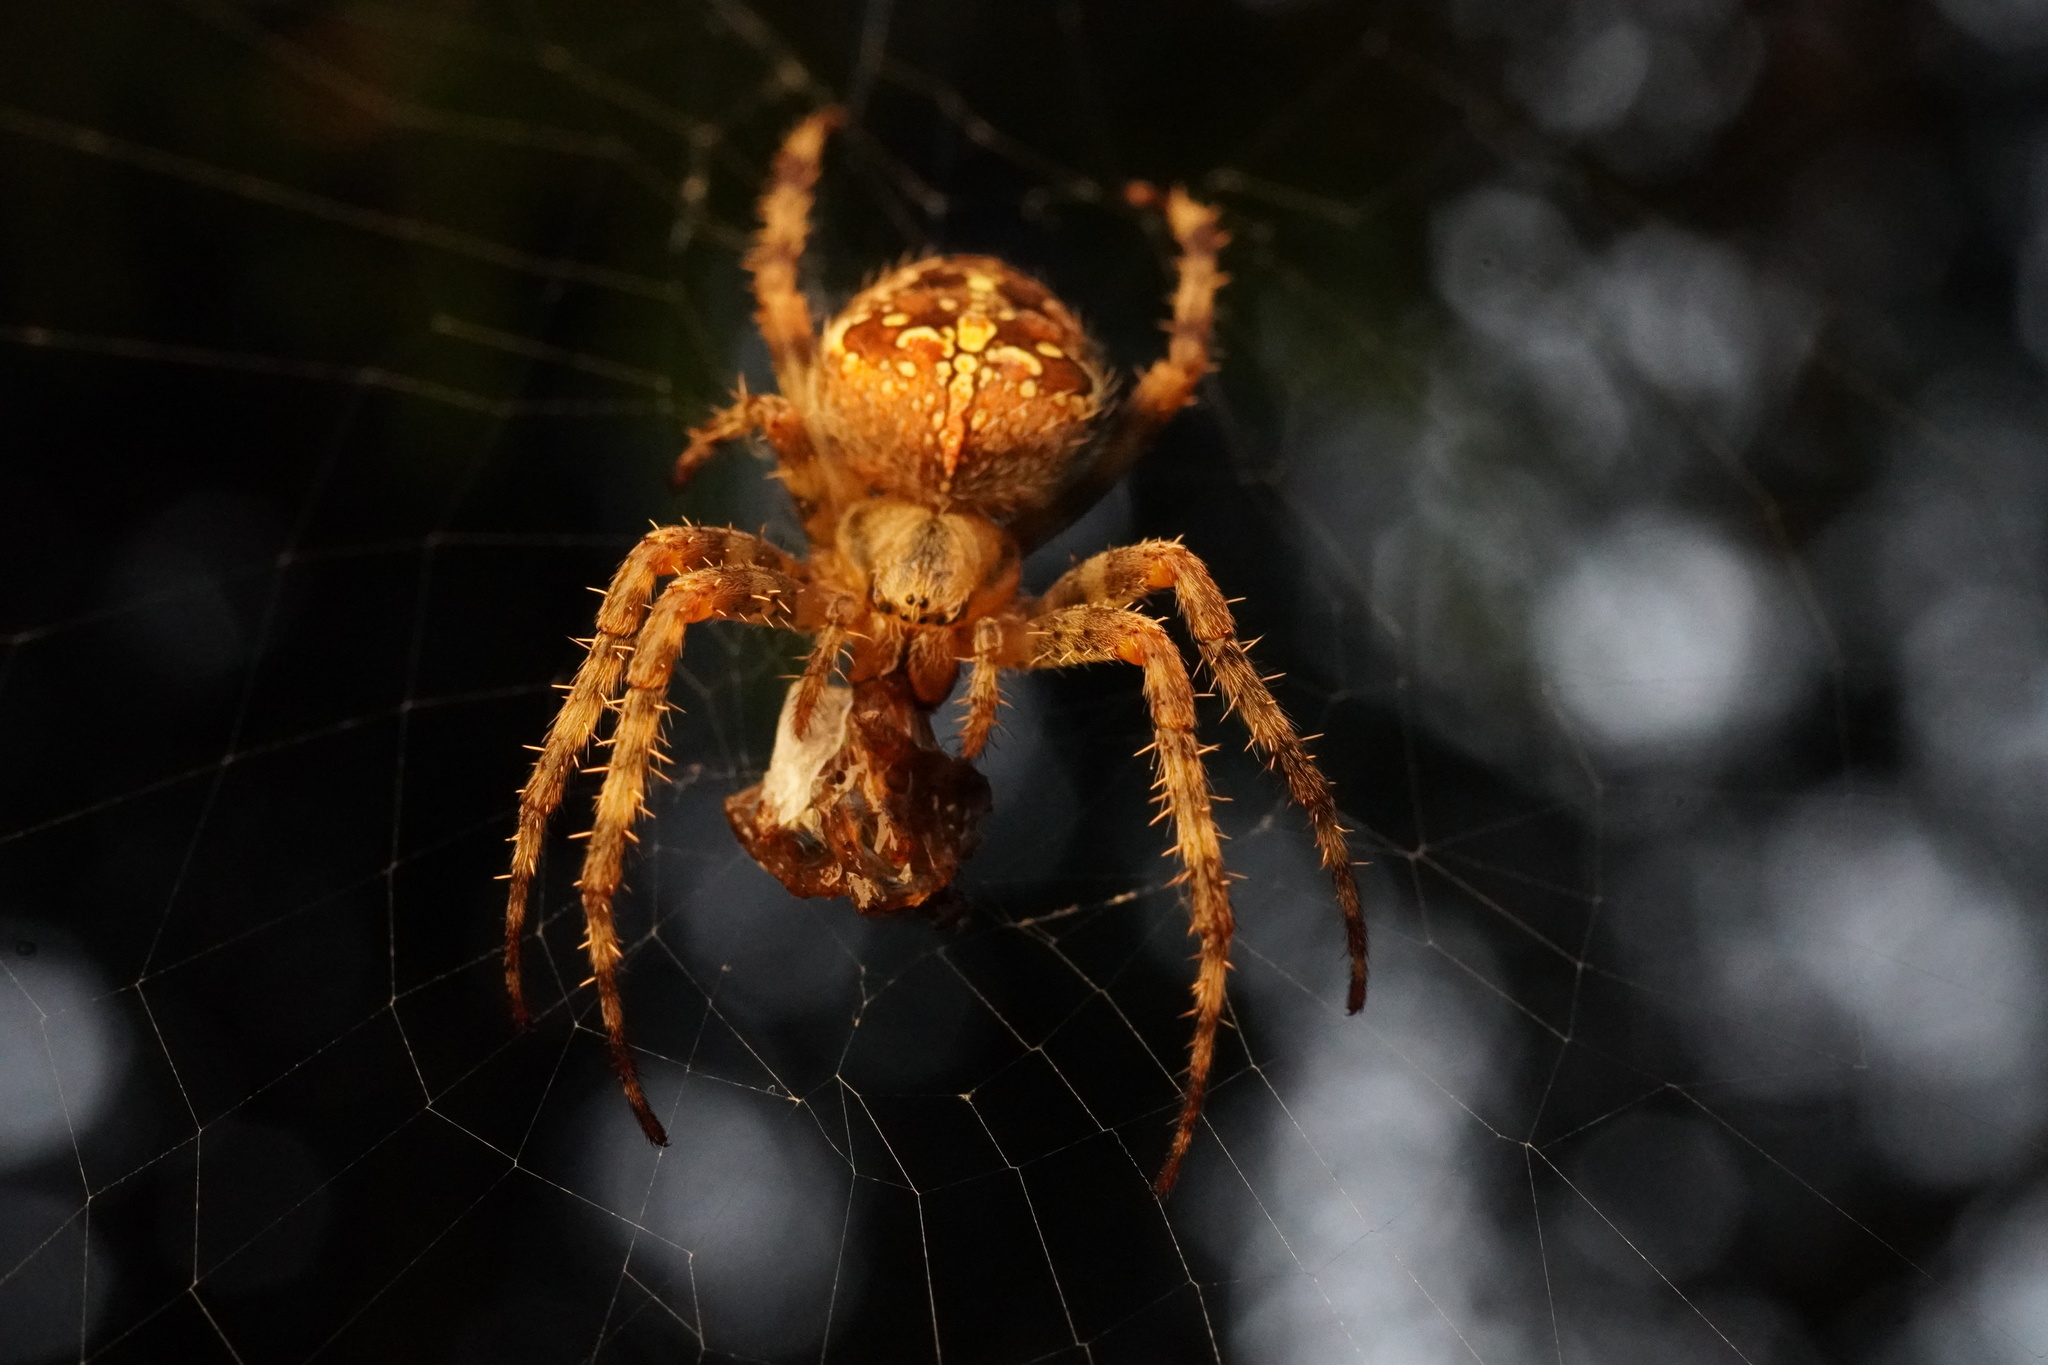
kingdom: Animalia
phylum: Arthropoda
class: Arachnida
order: Araneae
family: Araneidae
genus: Araneus
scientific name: Araneus diadematus
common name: Cross orbweaver
